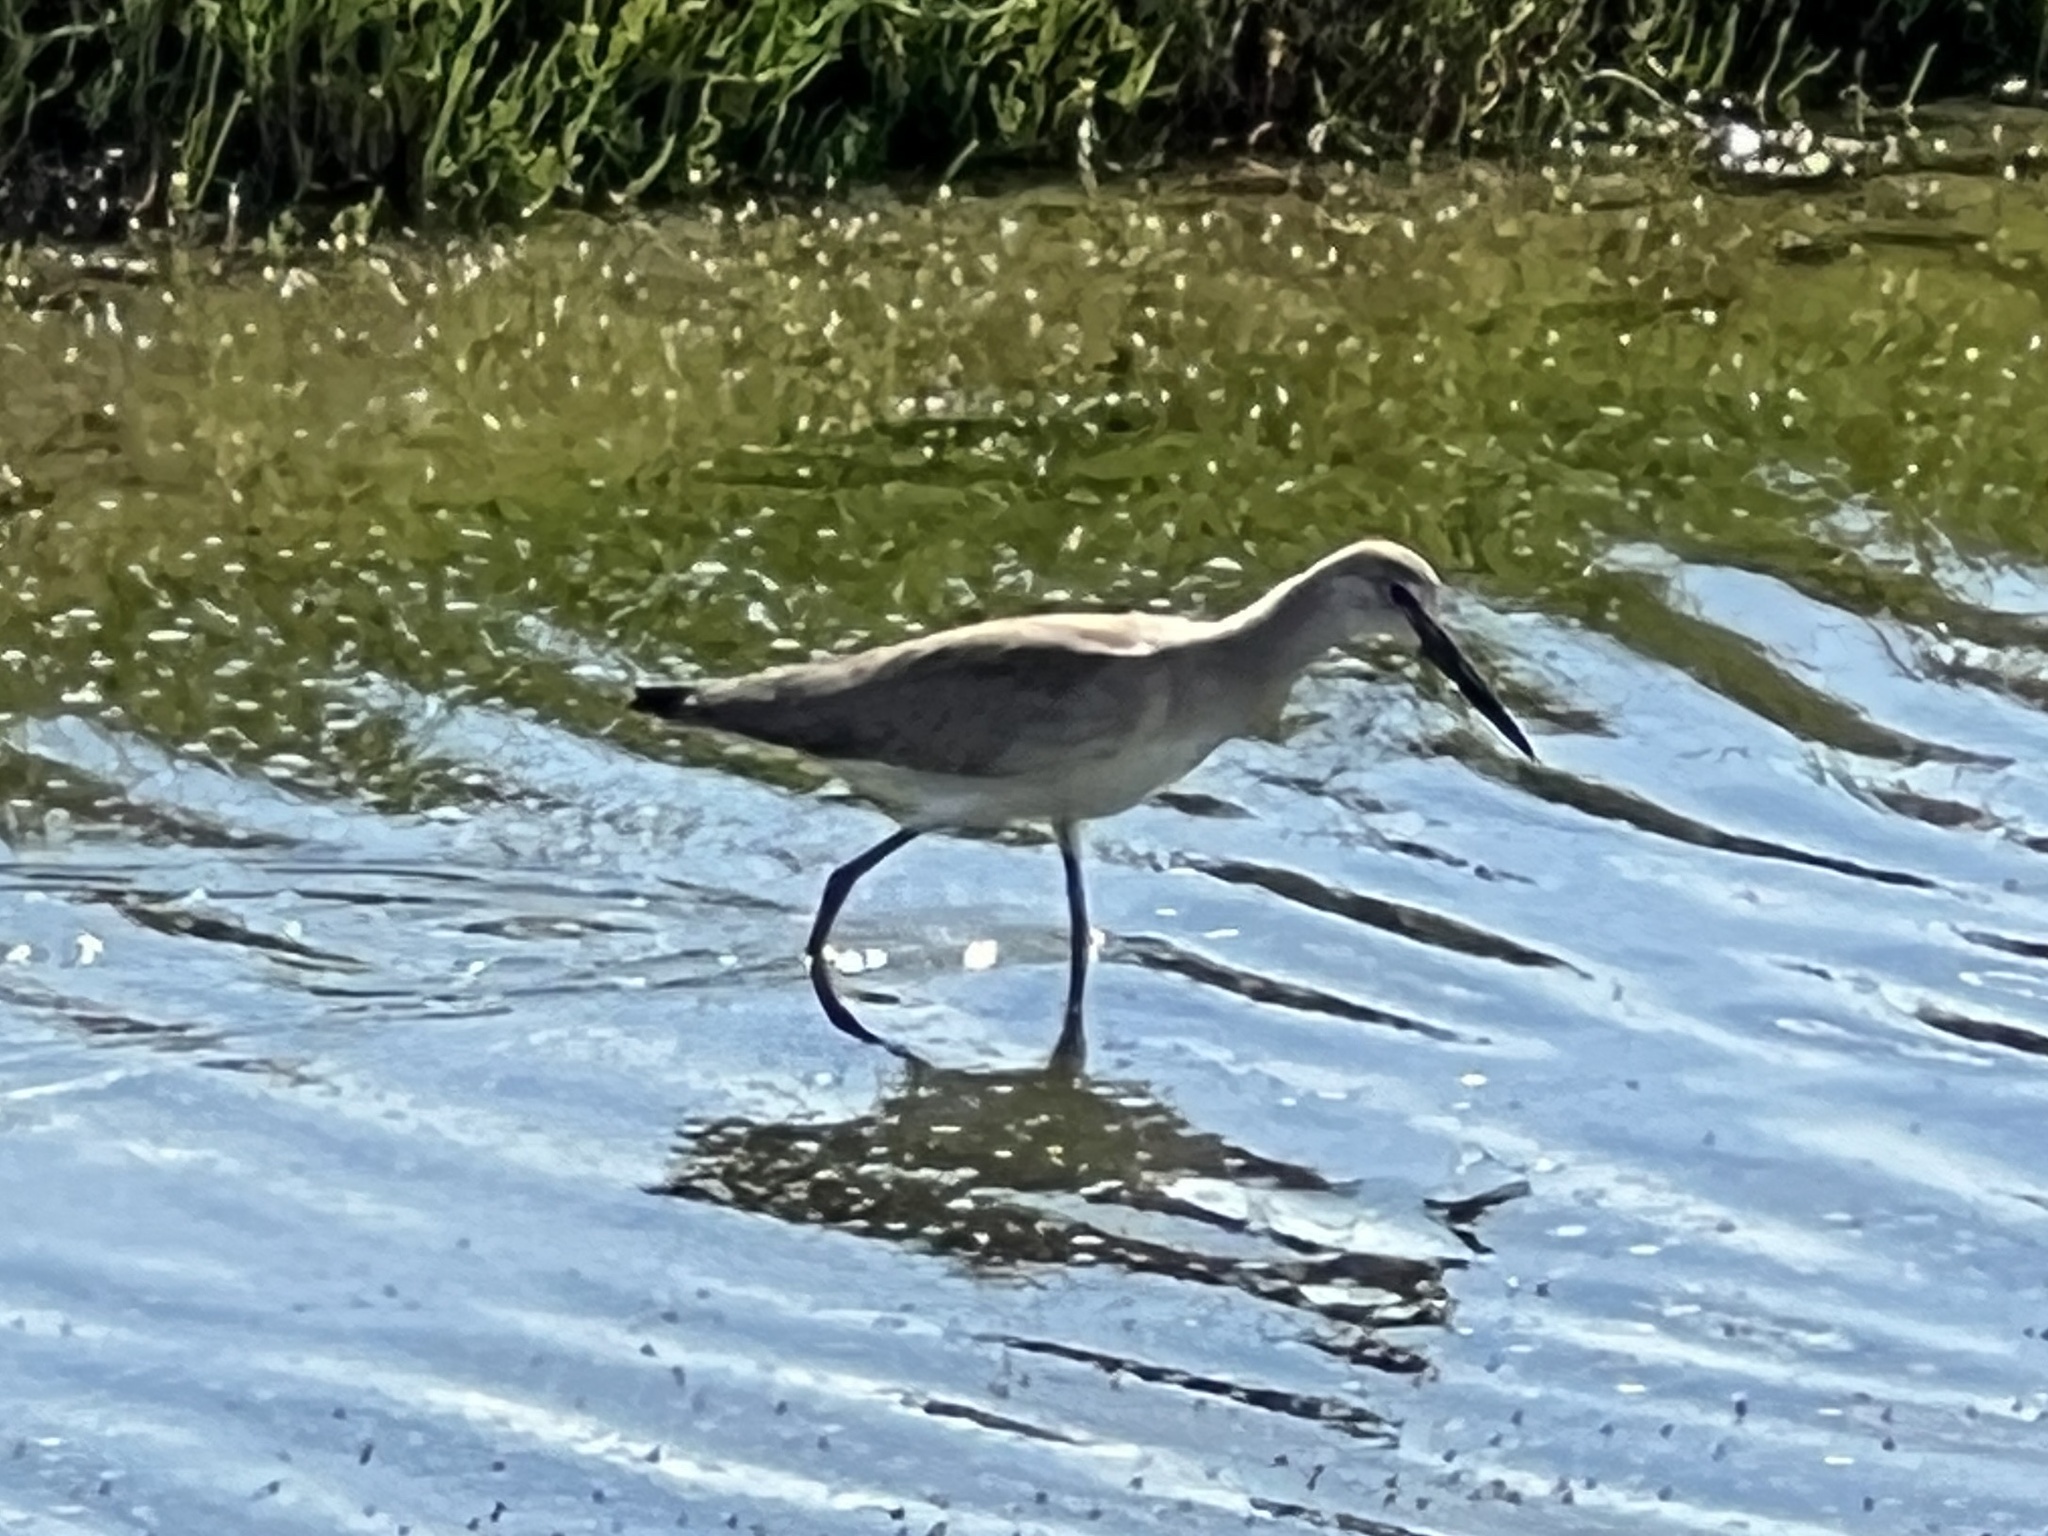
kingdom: Animalia
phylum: Chordata
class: Aves
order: Charadriiformes
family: Scolopacidae
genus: Tringa
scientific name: Tringa semipalmata
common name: Willet
